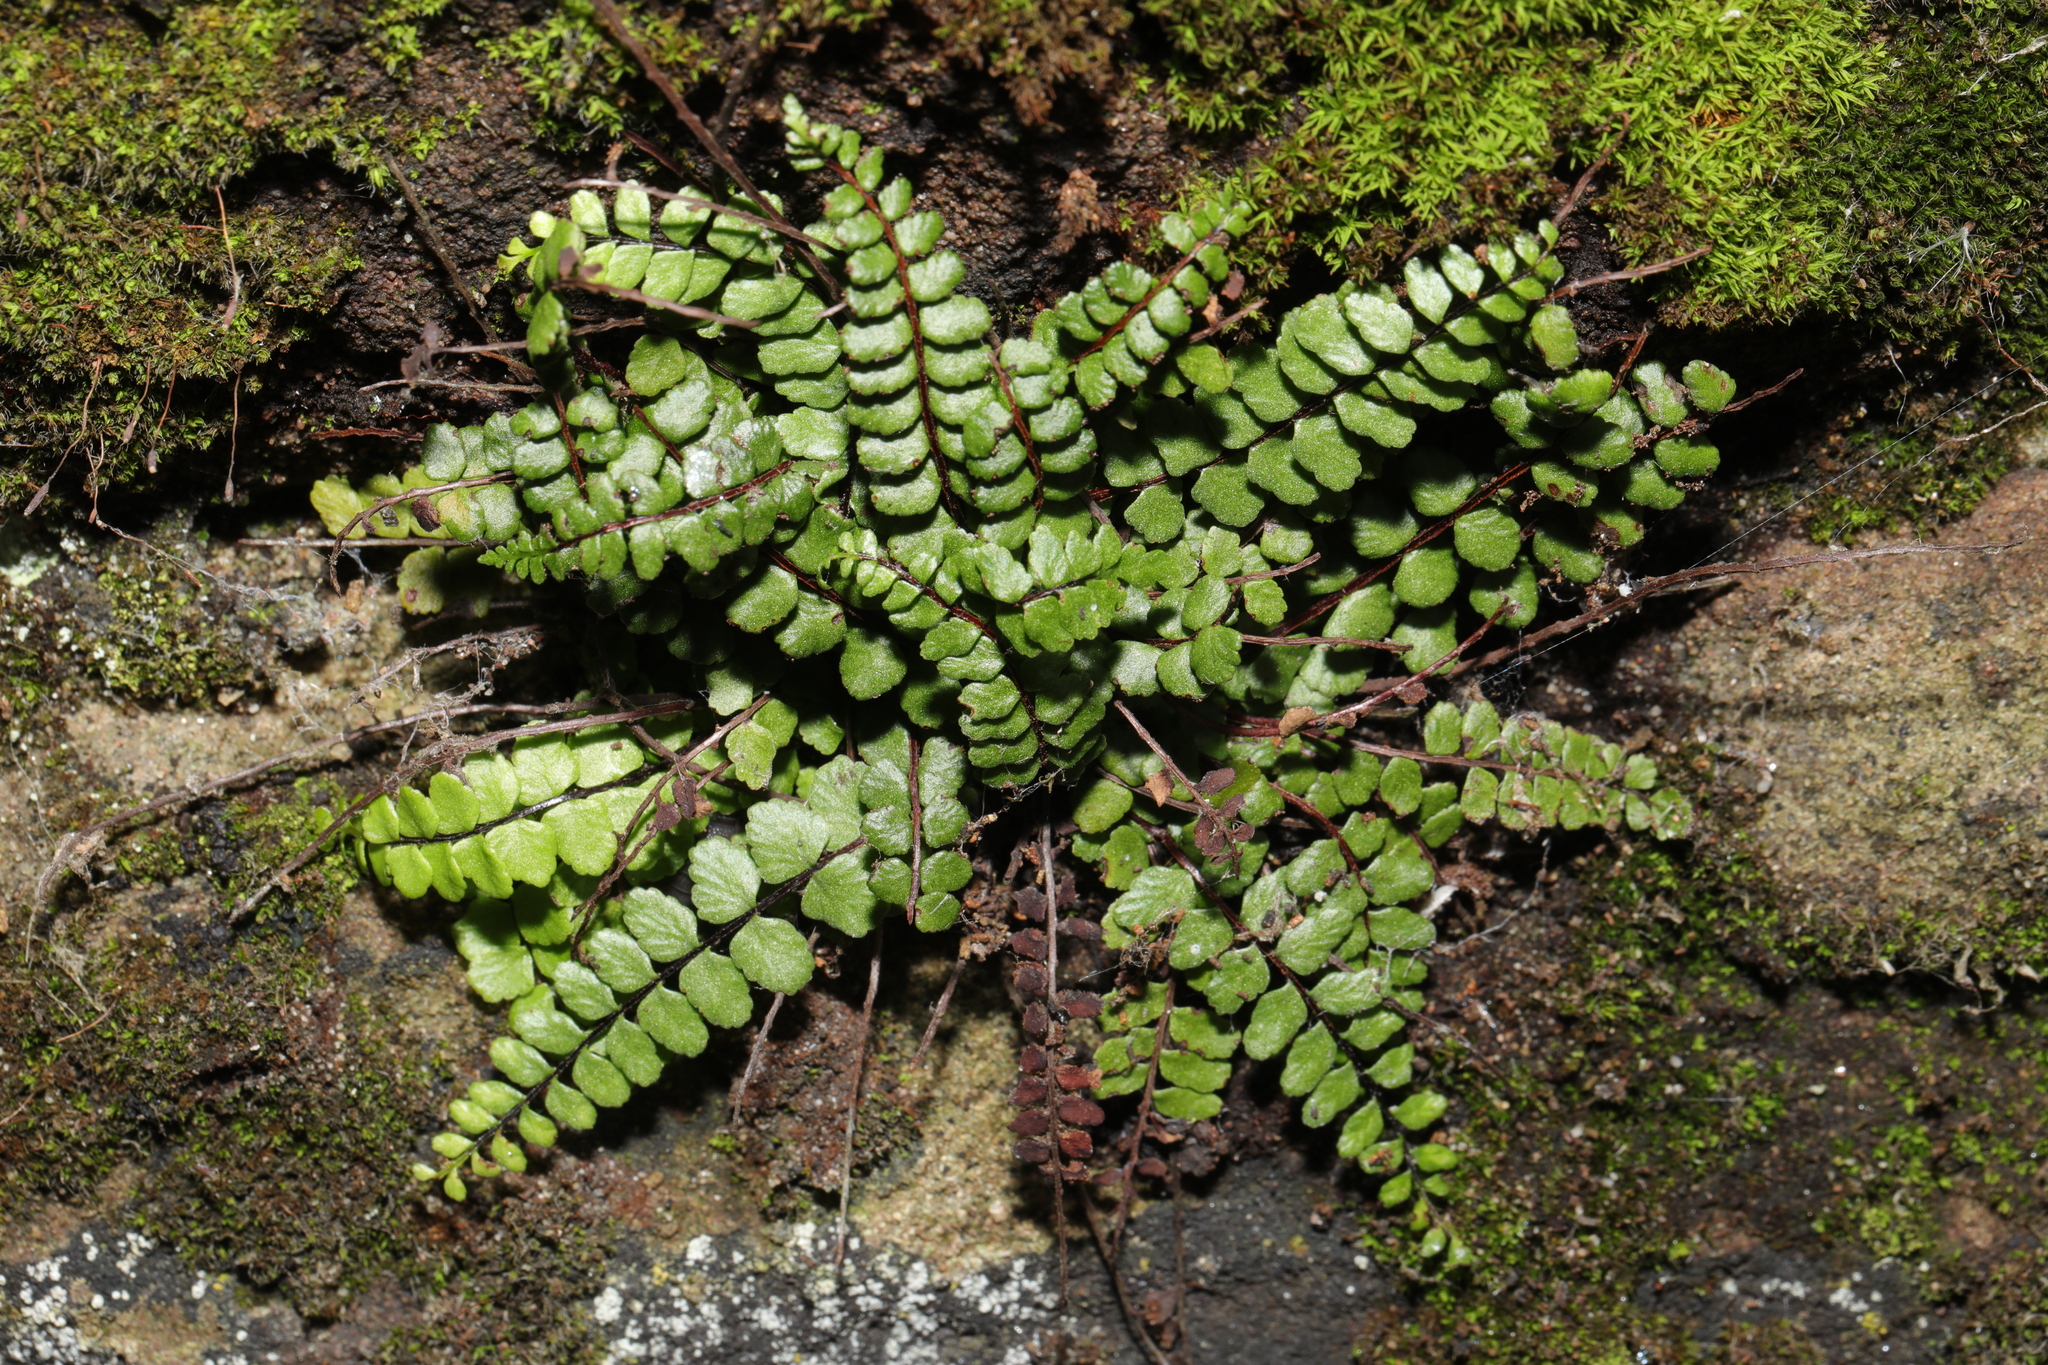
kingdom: Plantae
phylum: Tracheophyta
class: Polypodiopsida
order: Polypodiales
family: Aspleniaceae
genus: Asplenium
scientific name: Asplenium trichomanes
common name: Maidenhair spleenwort
